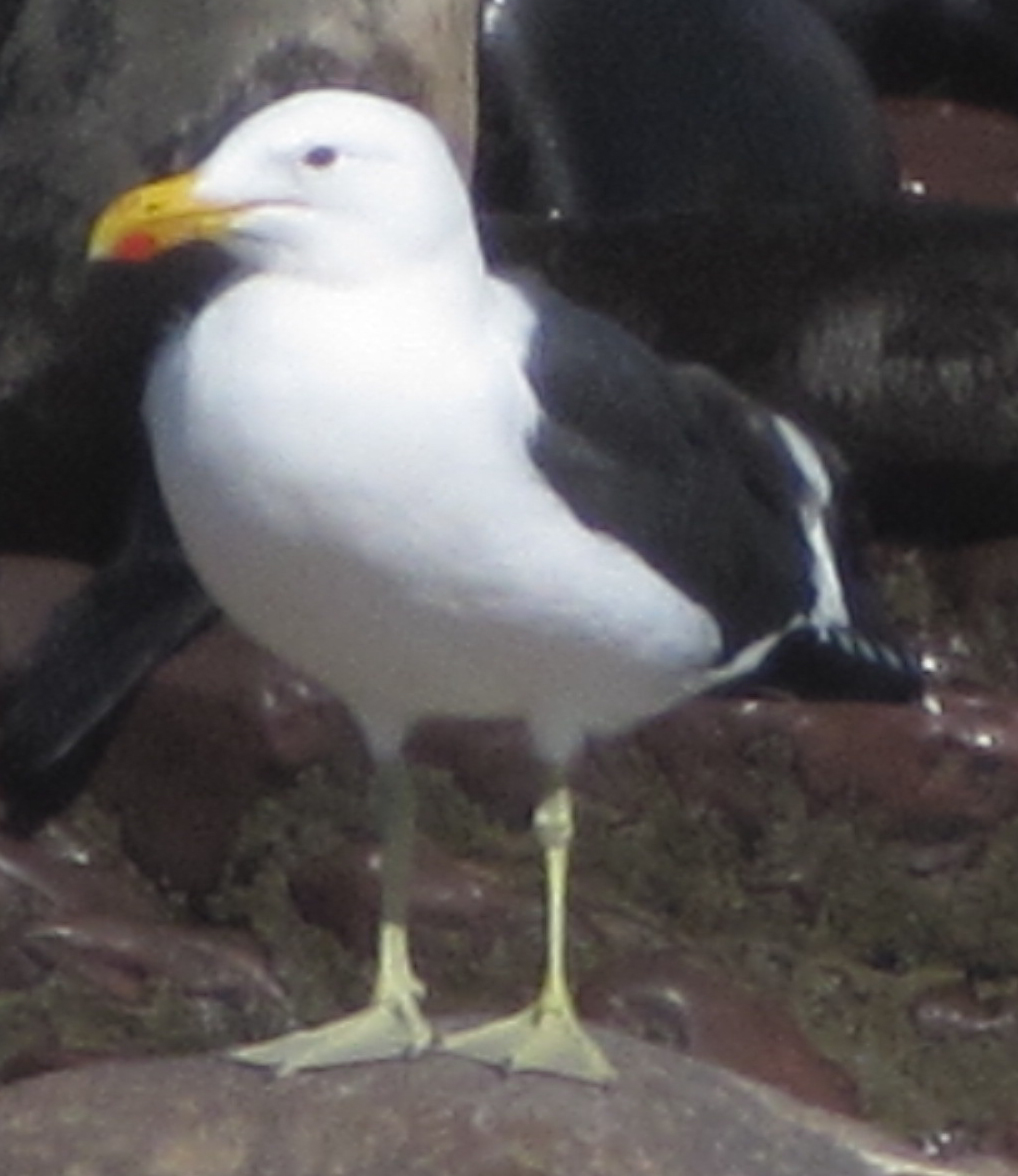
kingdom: Animalia
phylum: Chordata
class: Aves
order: Charadriiformes
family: Laridae
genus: Larus
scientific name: Larus dominicanus
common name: Kelp gull
